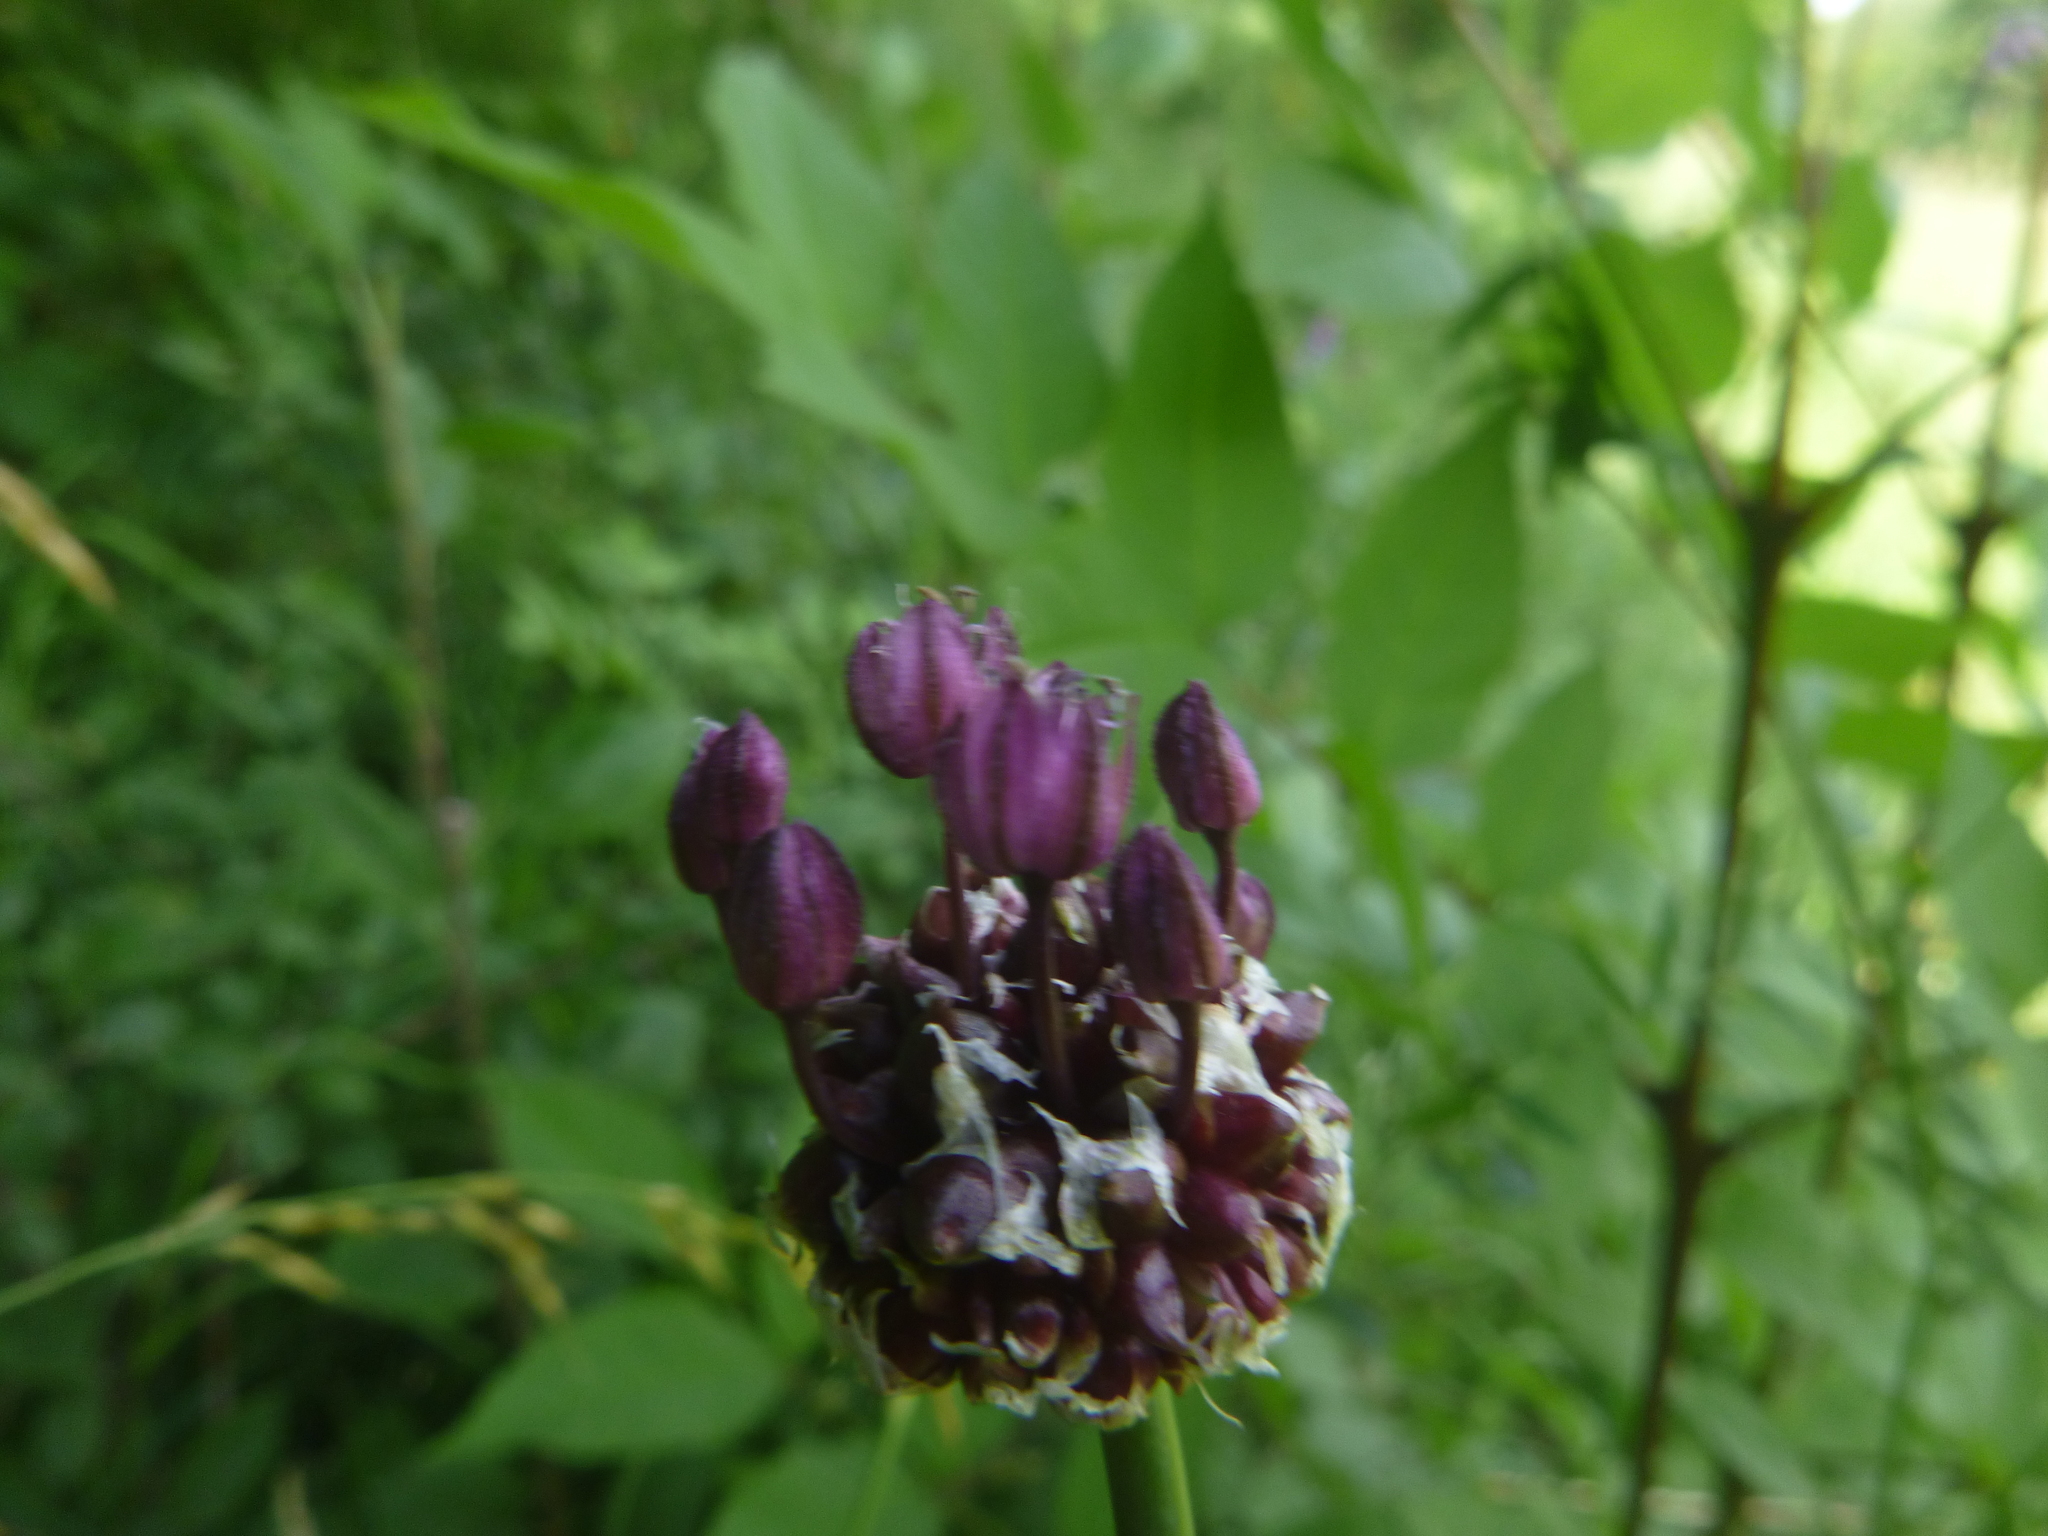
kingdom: Plantae
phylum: Tracheophyta
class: Liliopsida
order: Asparagales
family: Amaryllidaceae
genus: Allium
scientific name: Allium scorodoprasum
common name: Sand leek
